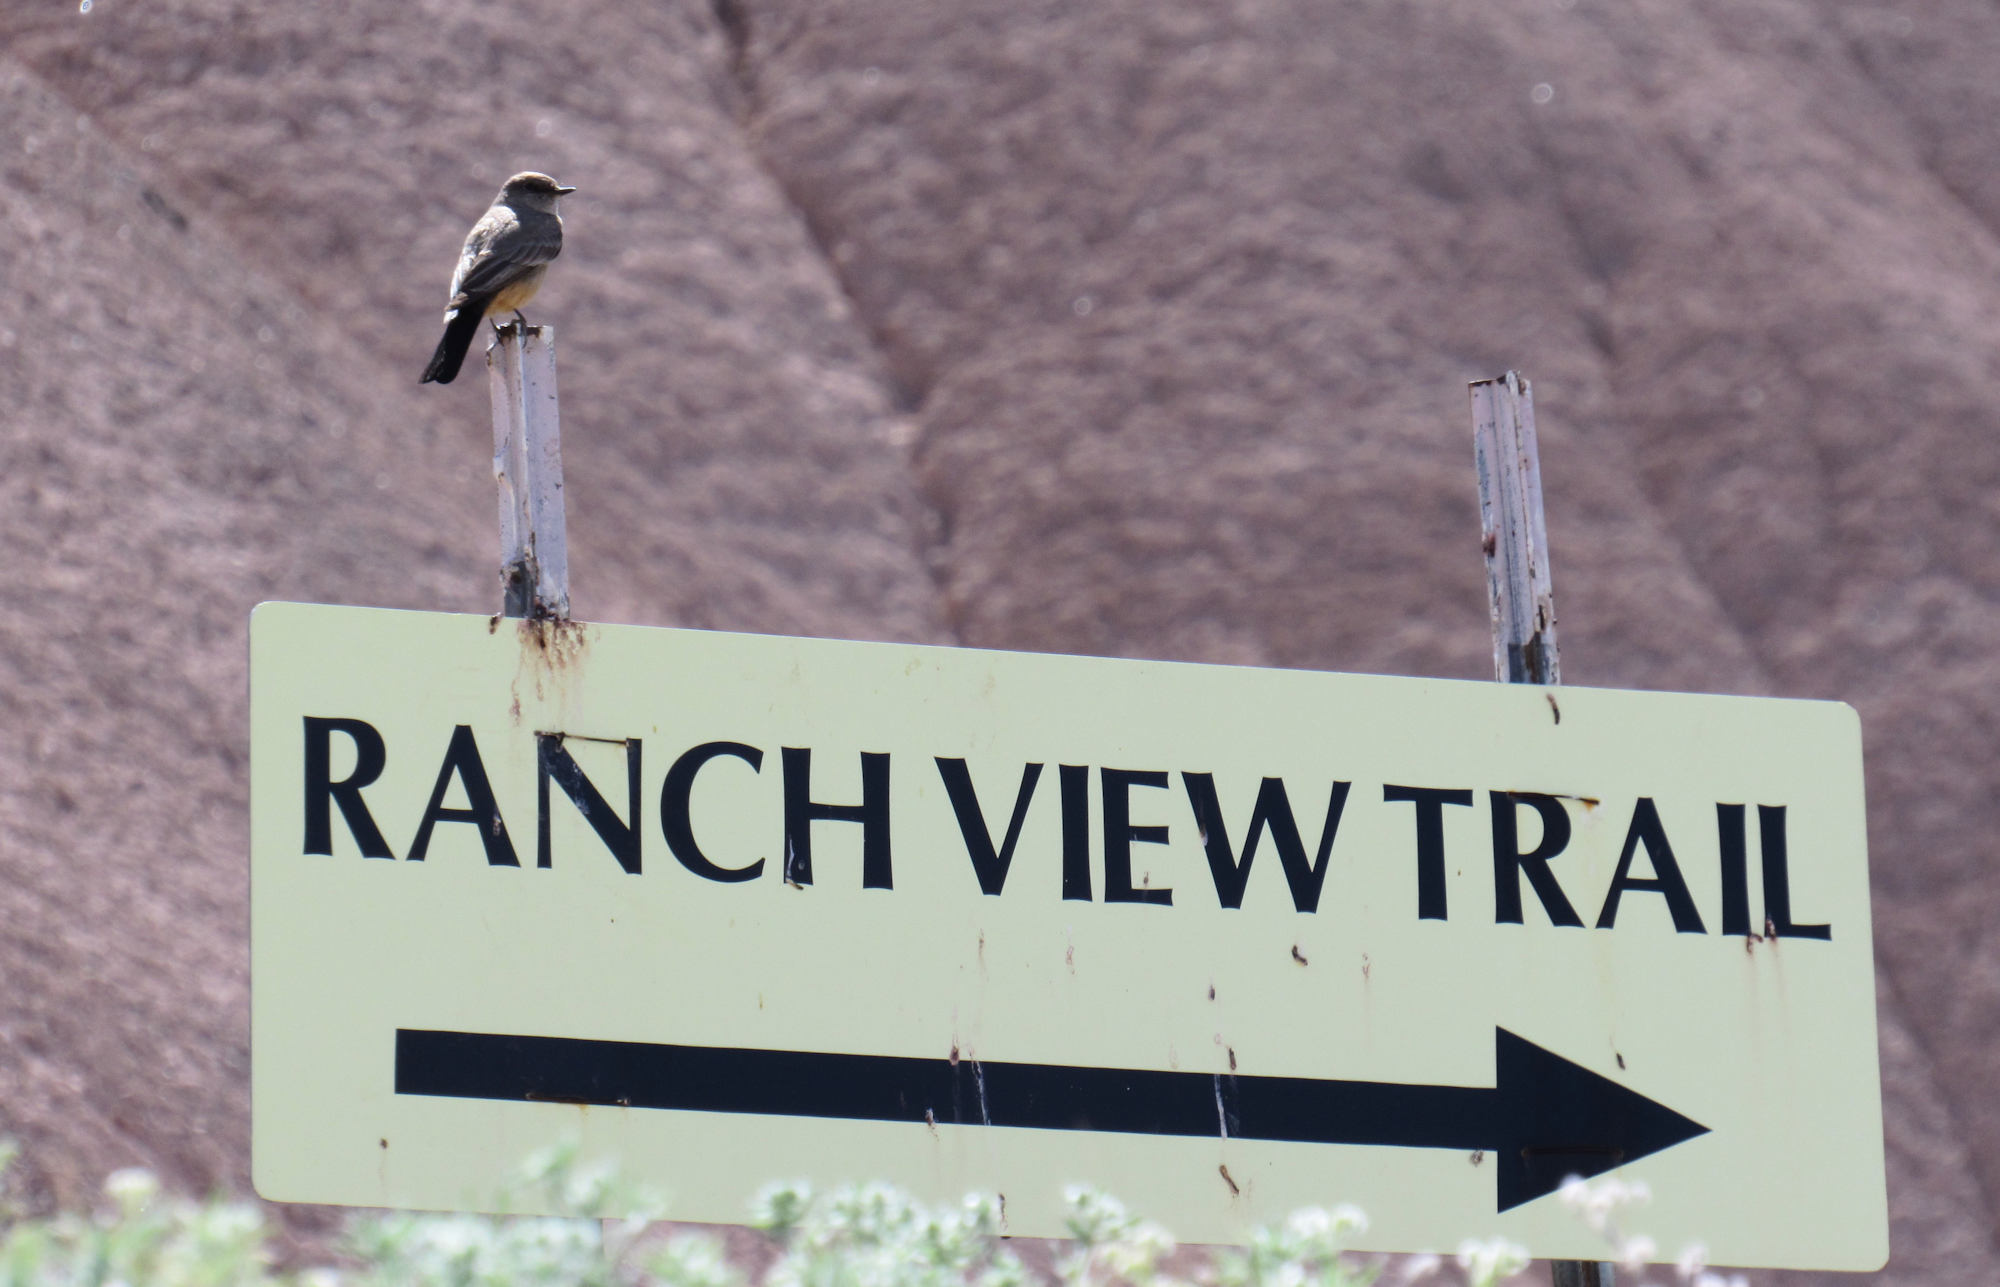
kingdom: Animalia
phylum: Chordata
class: Aves
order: Passeriformes
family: Tyrannidae
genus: Sayornis
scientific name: Sayornis saya
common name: Say's phoebe
